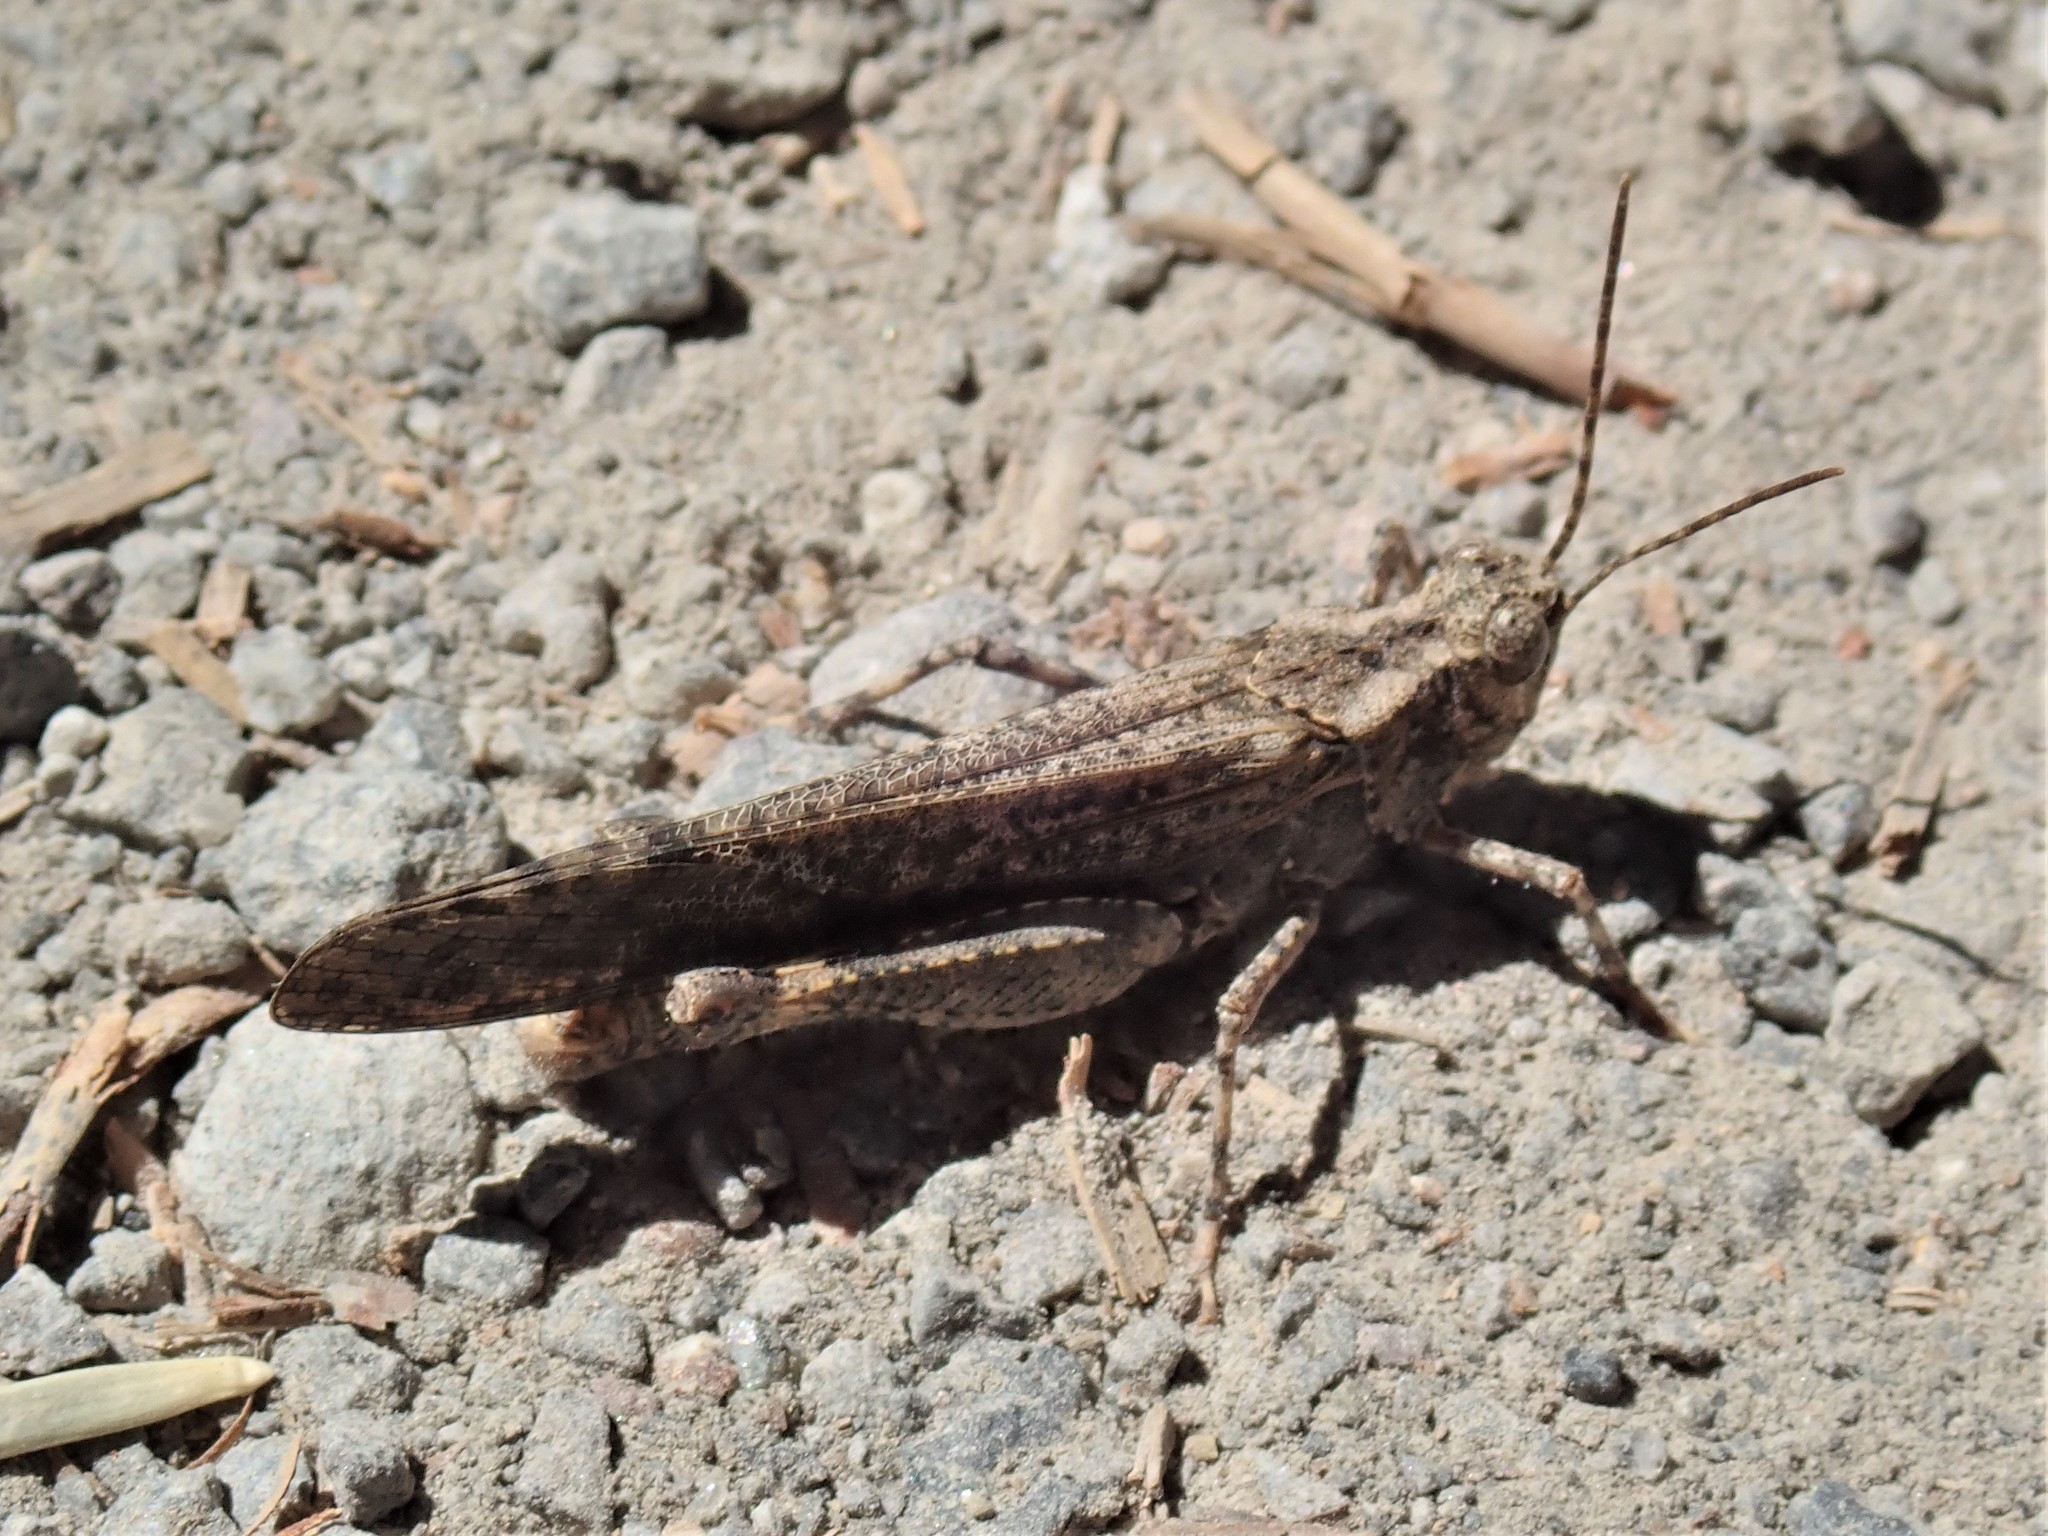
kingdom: Animalia
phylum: Arthropoda
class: Insecta
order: Orthoptera
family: Acrididae
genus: Trimerotropis
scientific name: Trimerotropis verruculata
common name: Crackling forest grasshopper
